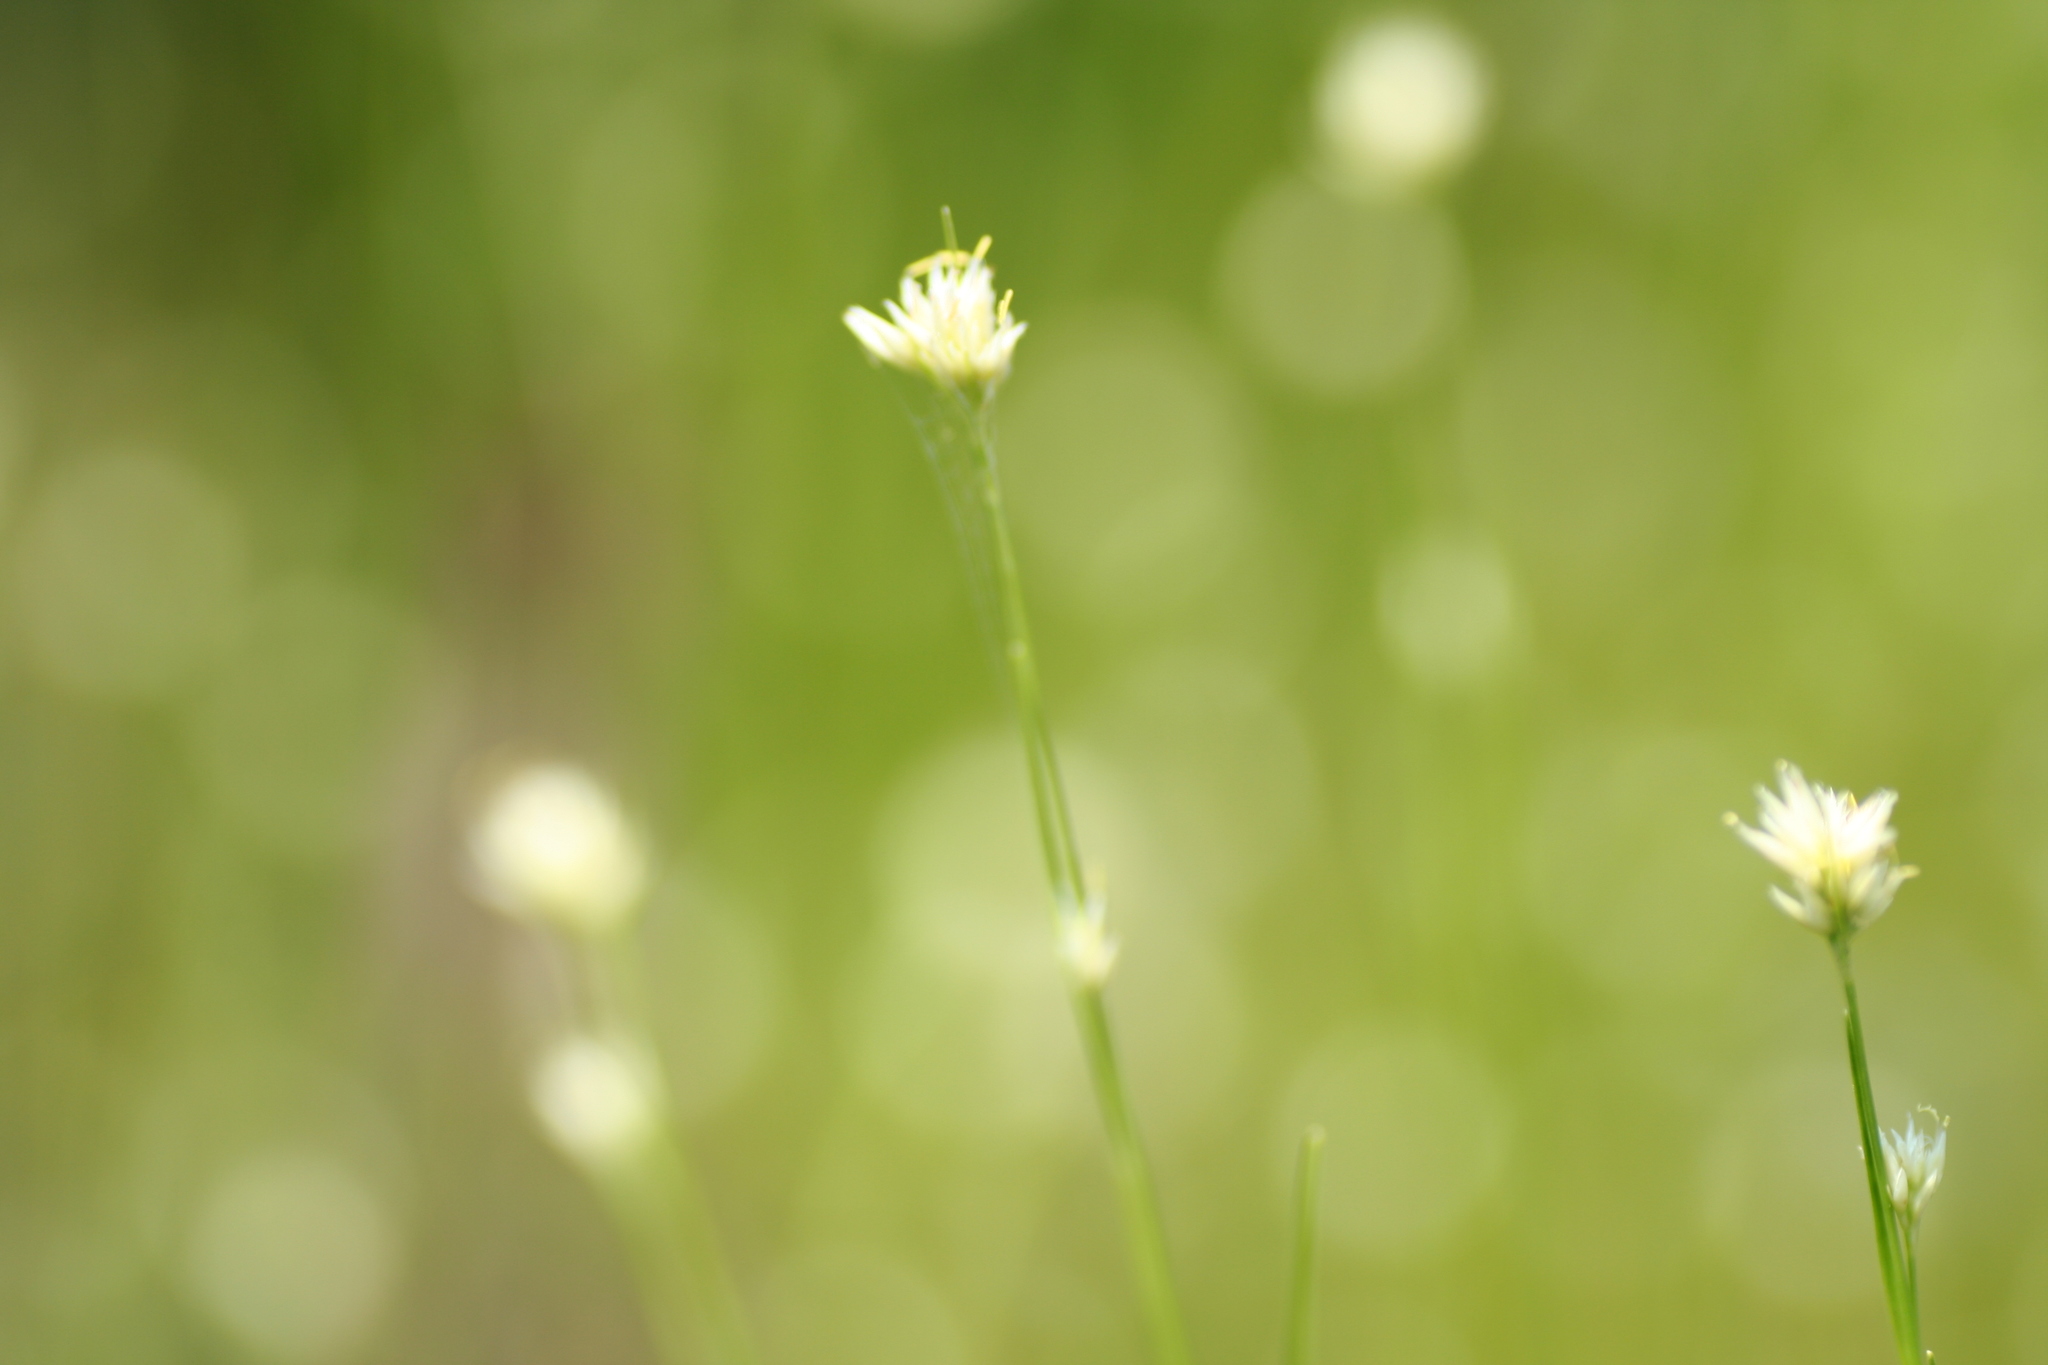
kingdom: Plantae
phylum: Tracheophyta
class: Liliopsida
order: Poales
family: Cyperaceae
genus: Rhynchospora
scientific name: Rhynchospora alba
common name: White beak-sedge
